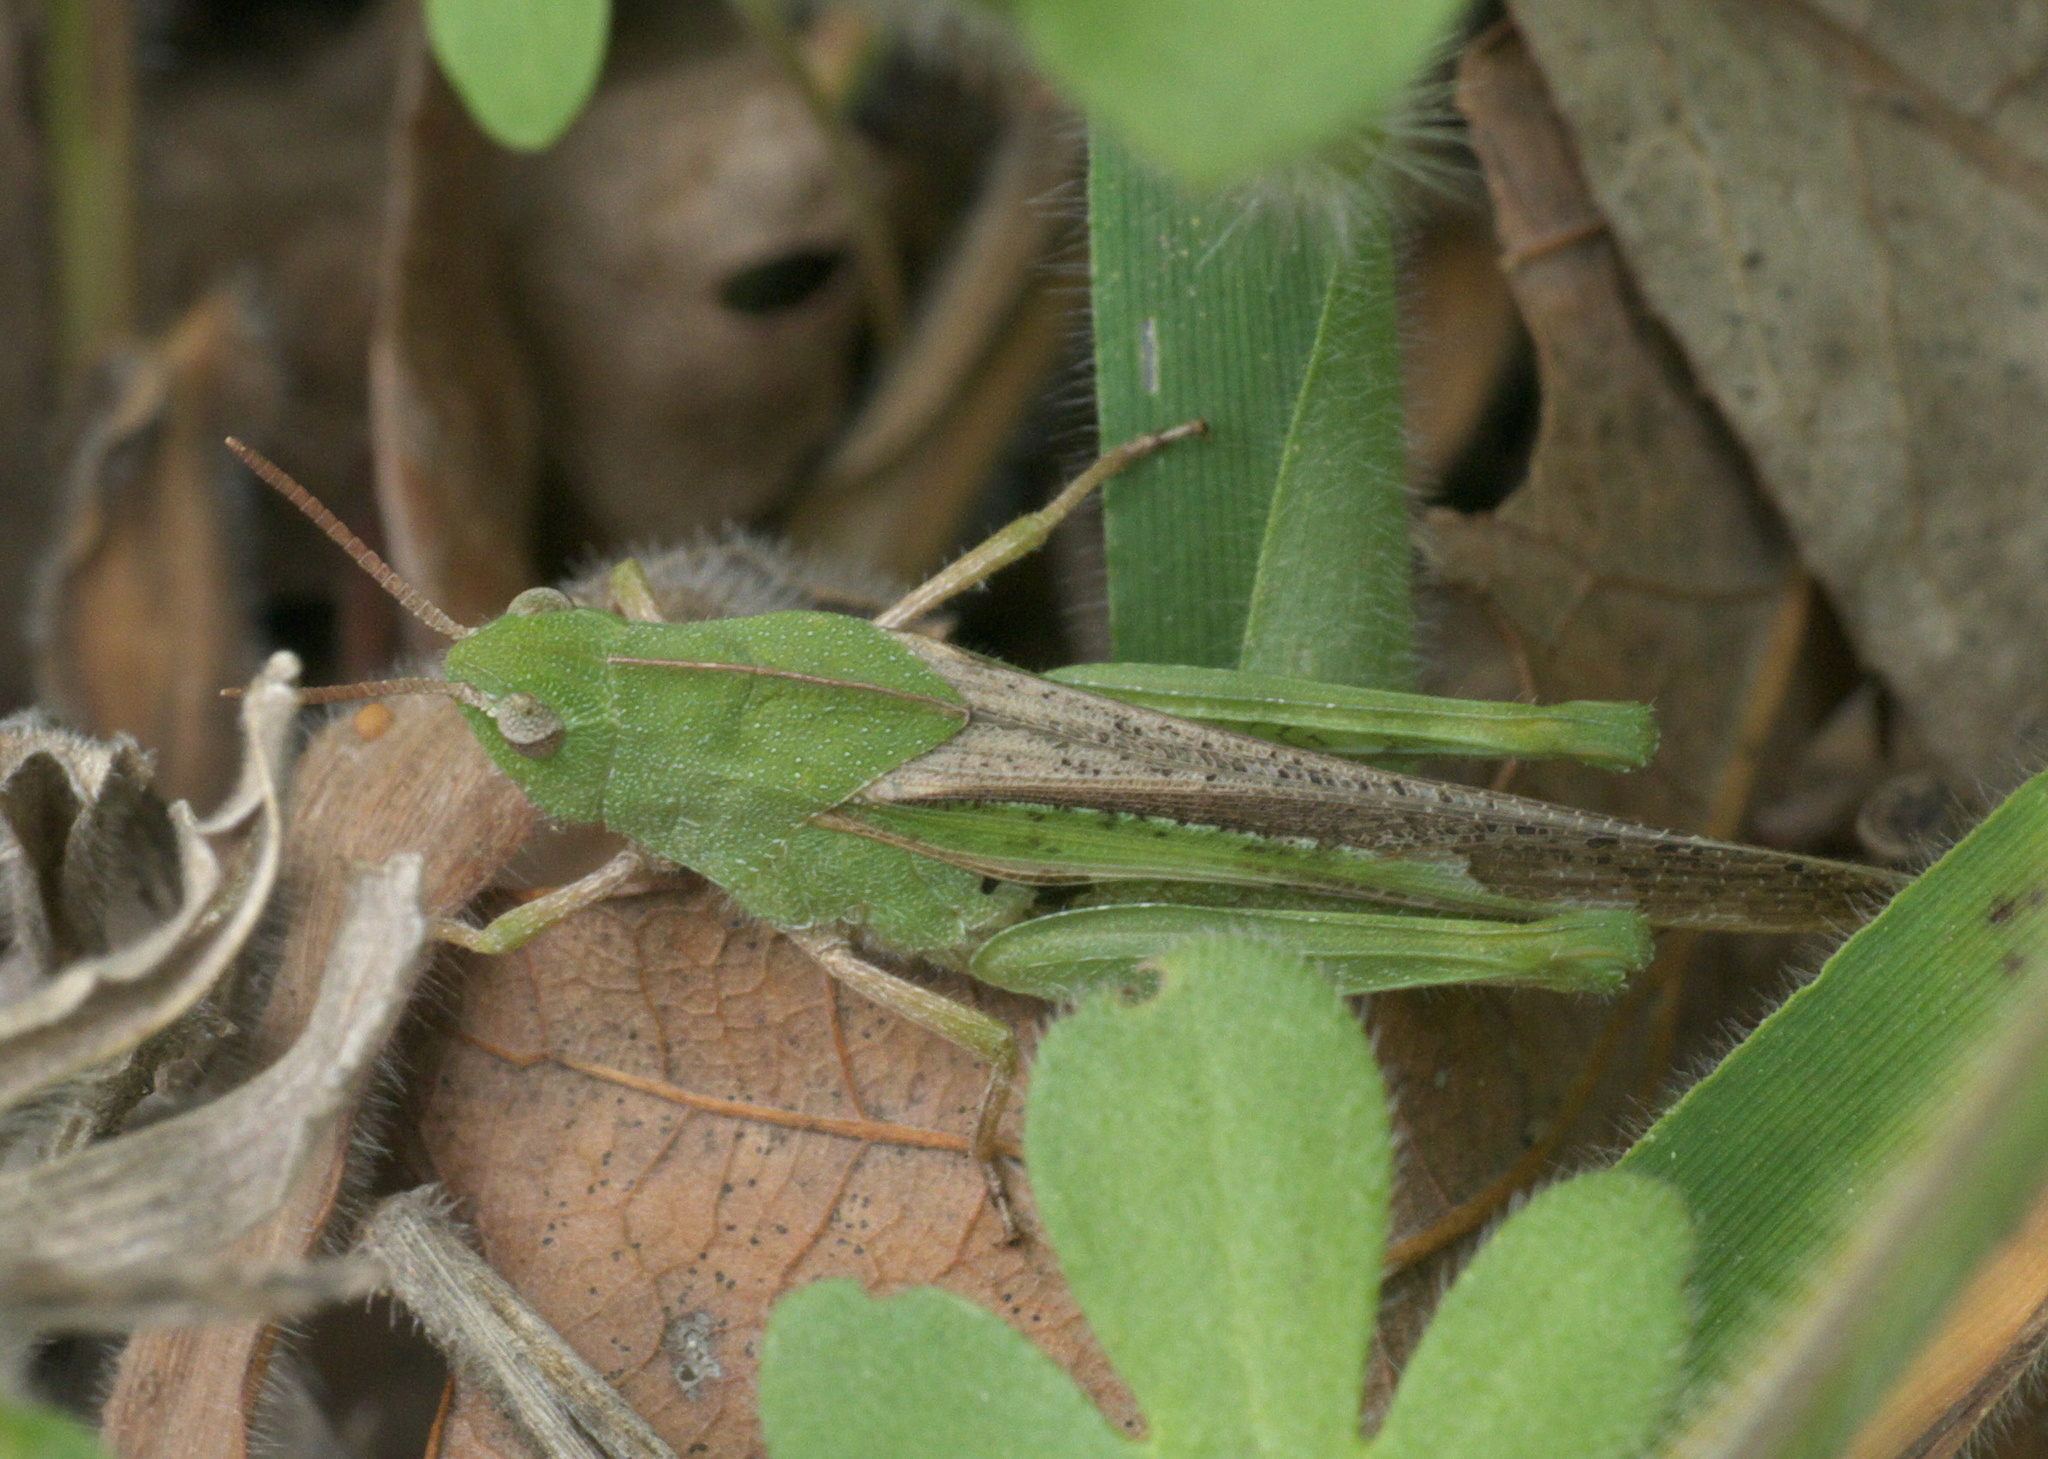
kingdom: Animalia
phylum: Arthropoda
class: Insecta
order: Orthoptera
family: Acrididae
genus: Chortophaga
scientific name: Chortophaga viridifasciata
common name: Green-striped grasshopper
